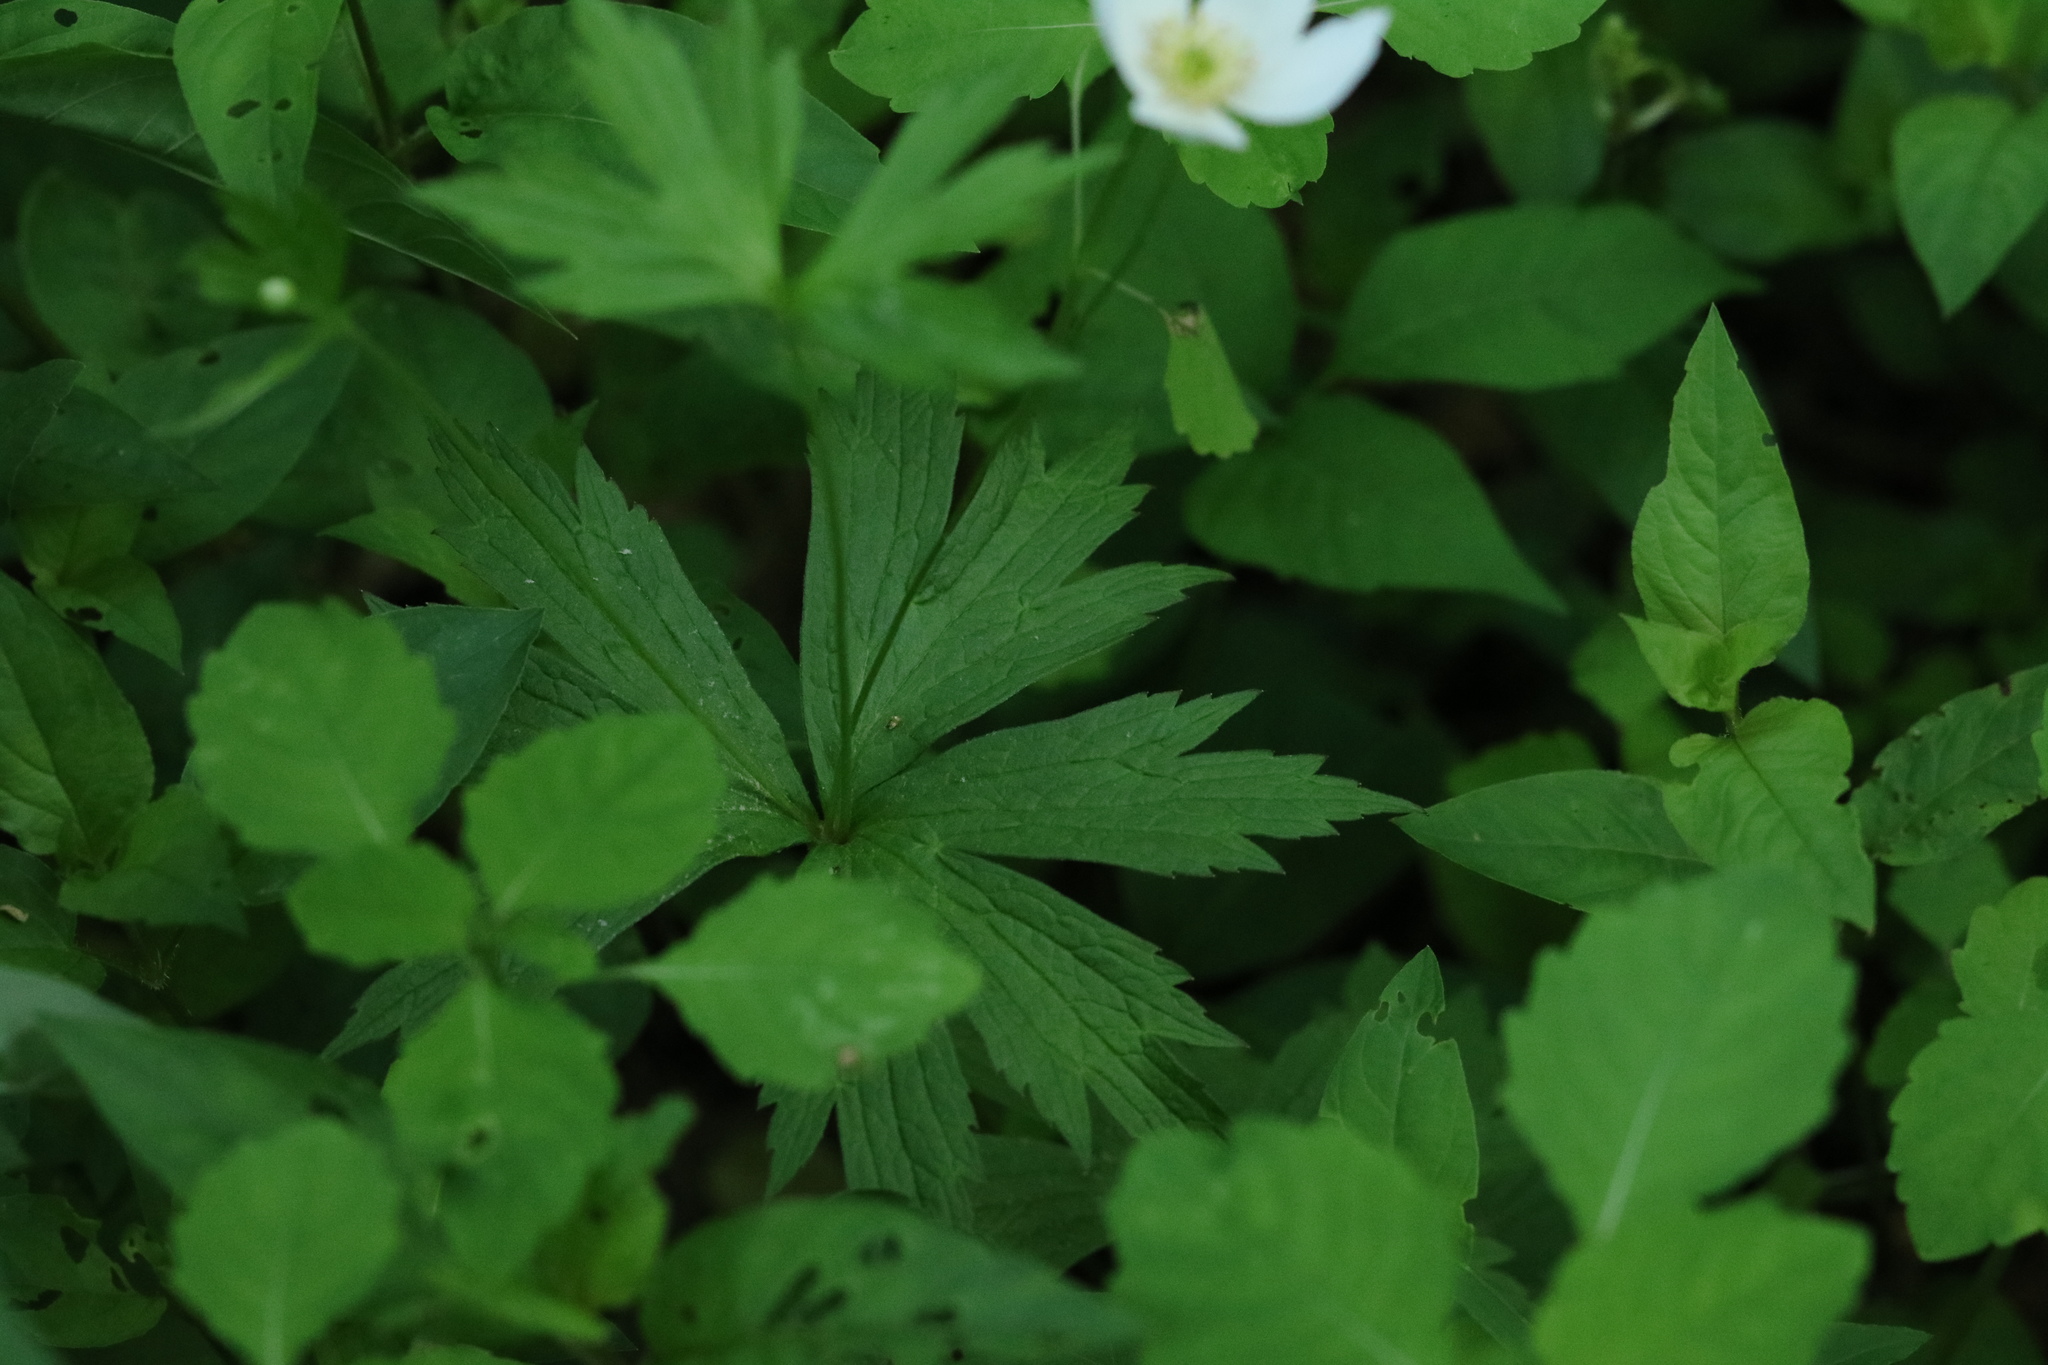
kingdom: Plantae
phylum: Tracheophyta
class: Magnoliopsida
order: Ranunculales
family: Ranunculaceae
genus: Anemonastrum
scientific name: Anemonastrum canadense
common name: Canada anemone
